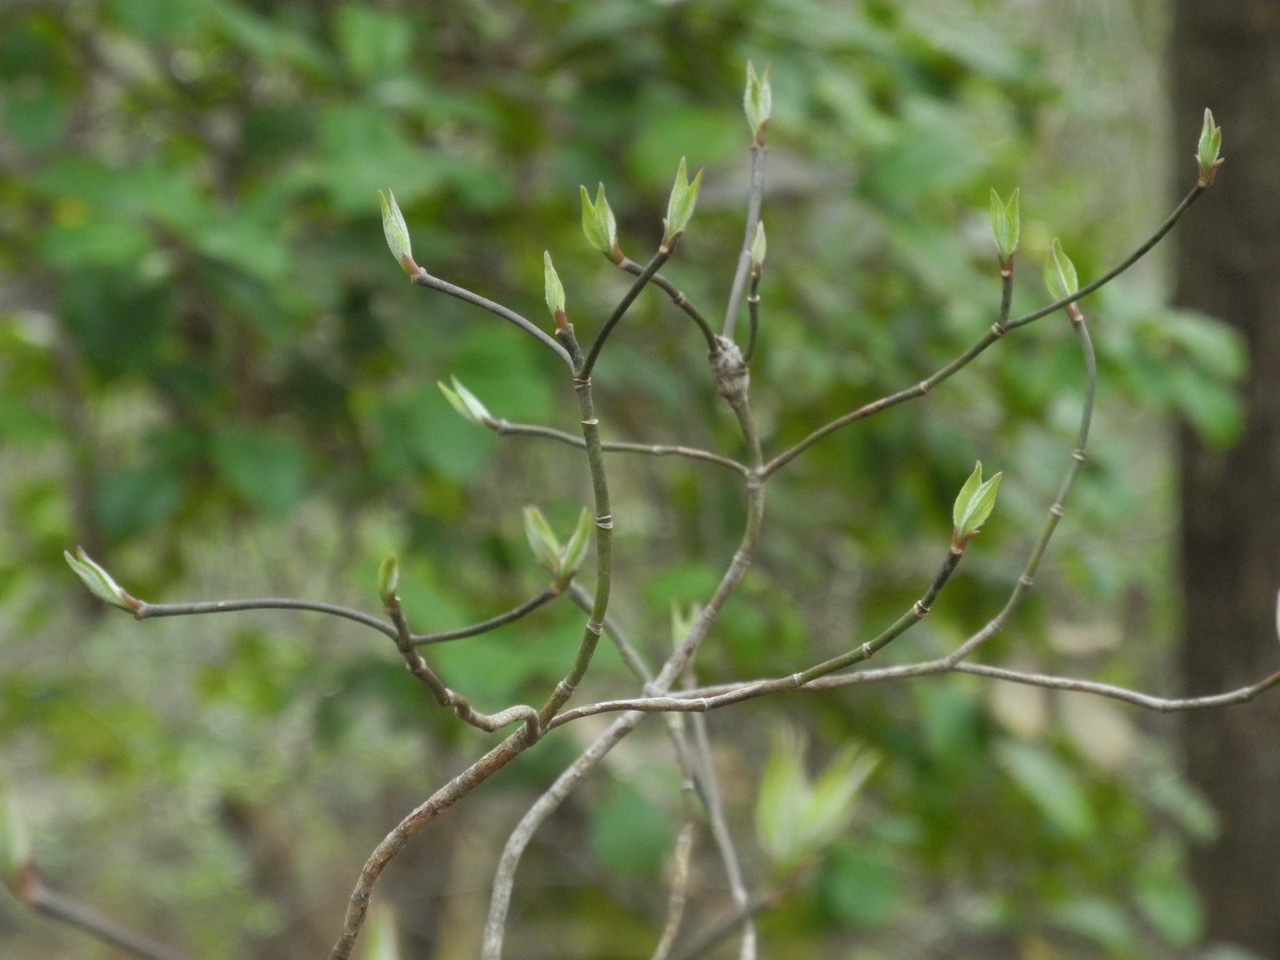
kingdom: Plantae
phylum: Tracheophyta
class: Magnoliopsida
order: Cornales
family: Cornaceae
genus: Cornus
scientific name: Cornus florida
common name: Flowering dogwood
